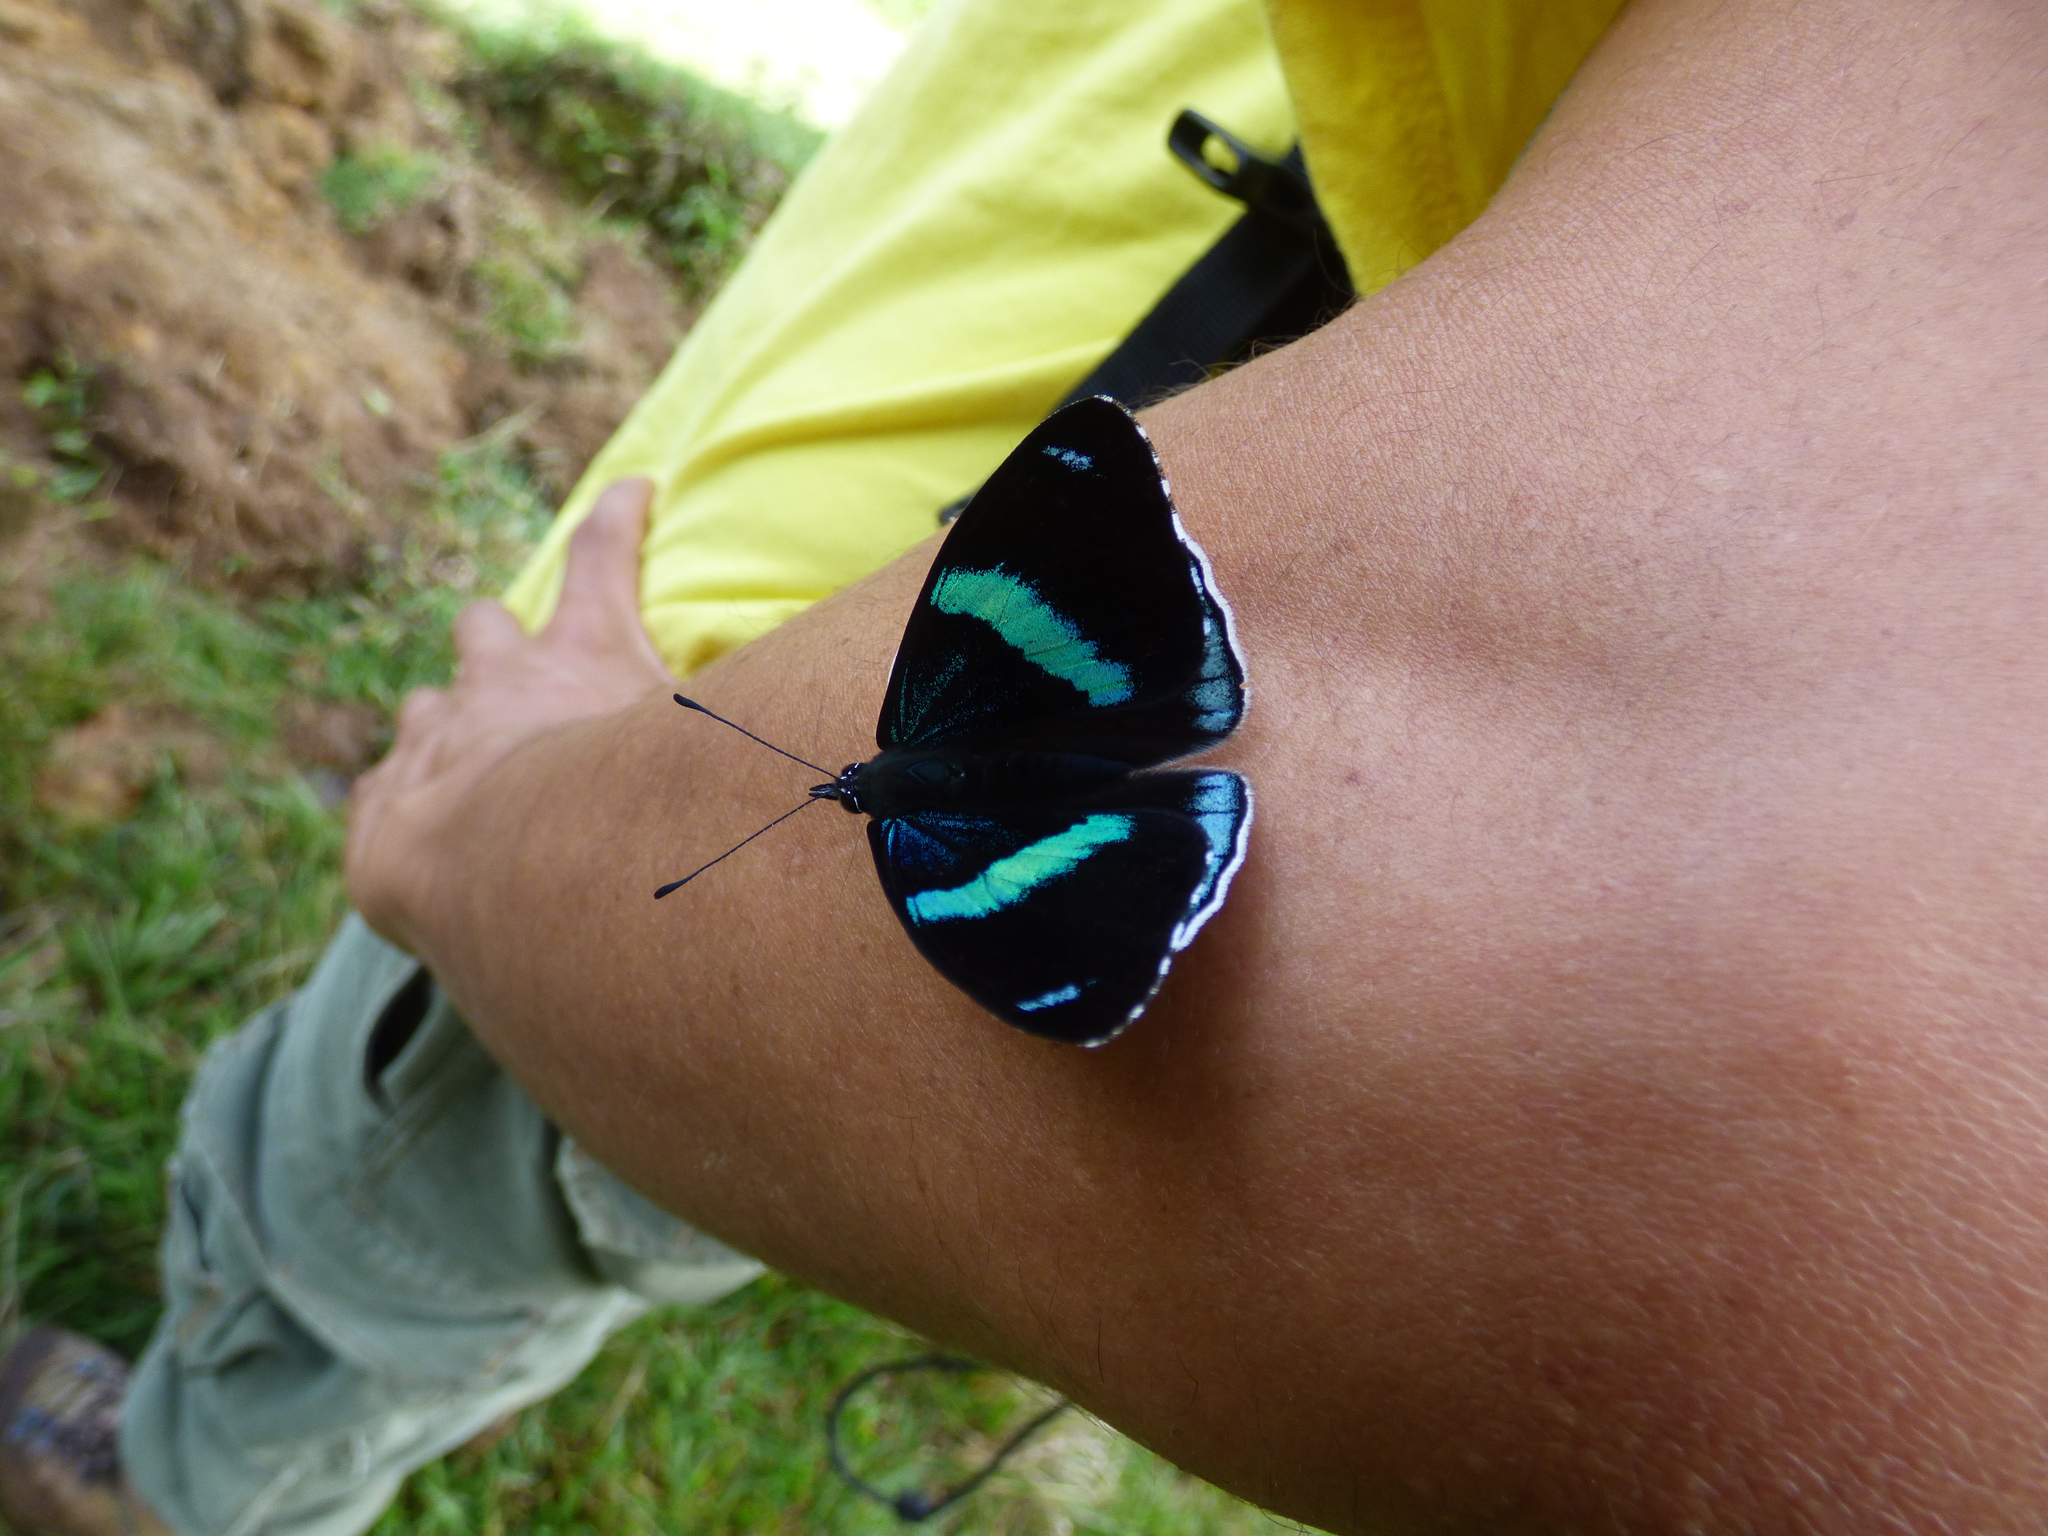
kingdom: Animalia
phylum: Arthropoda
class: Insecta
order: Lepidoptera
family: Nymphalidae
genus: Perisama
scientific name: Perisama bomplandii
